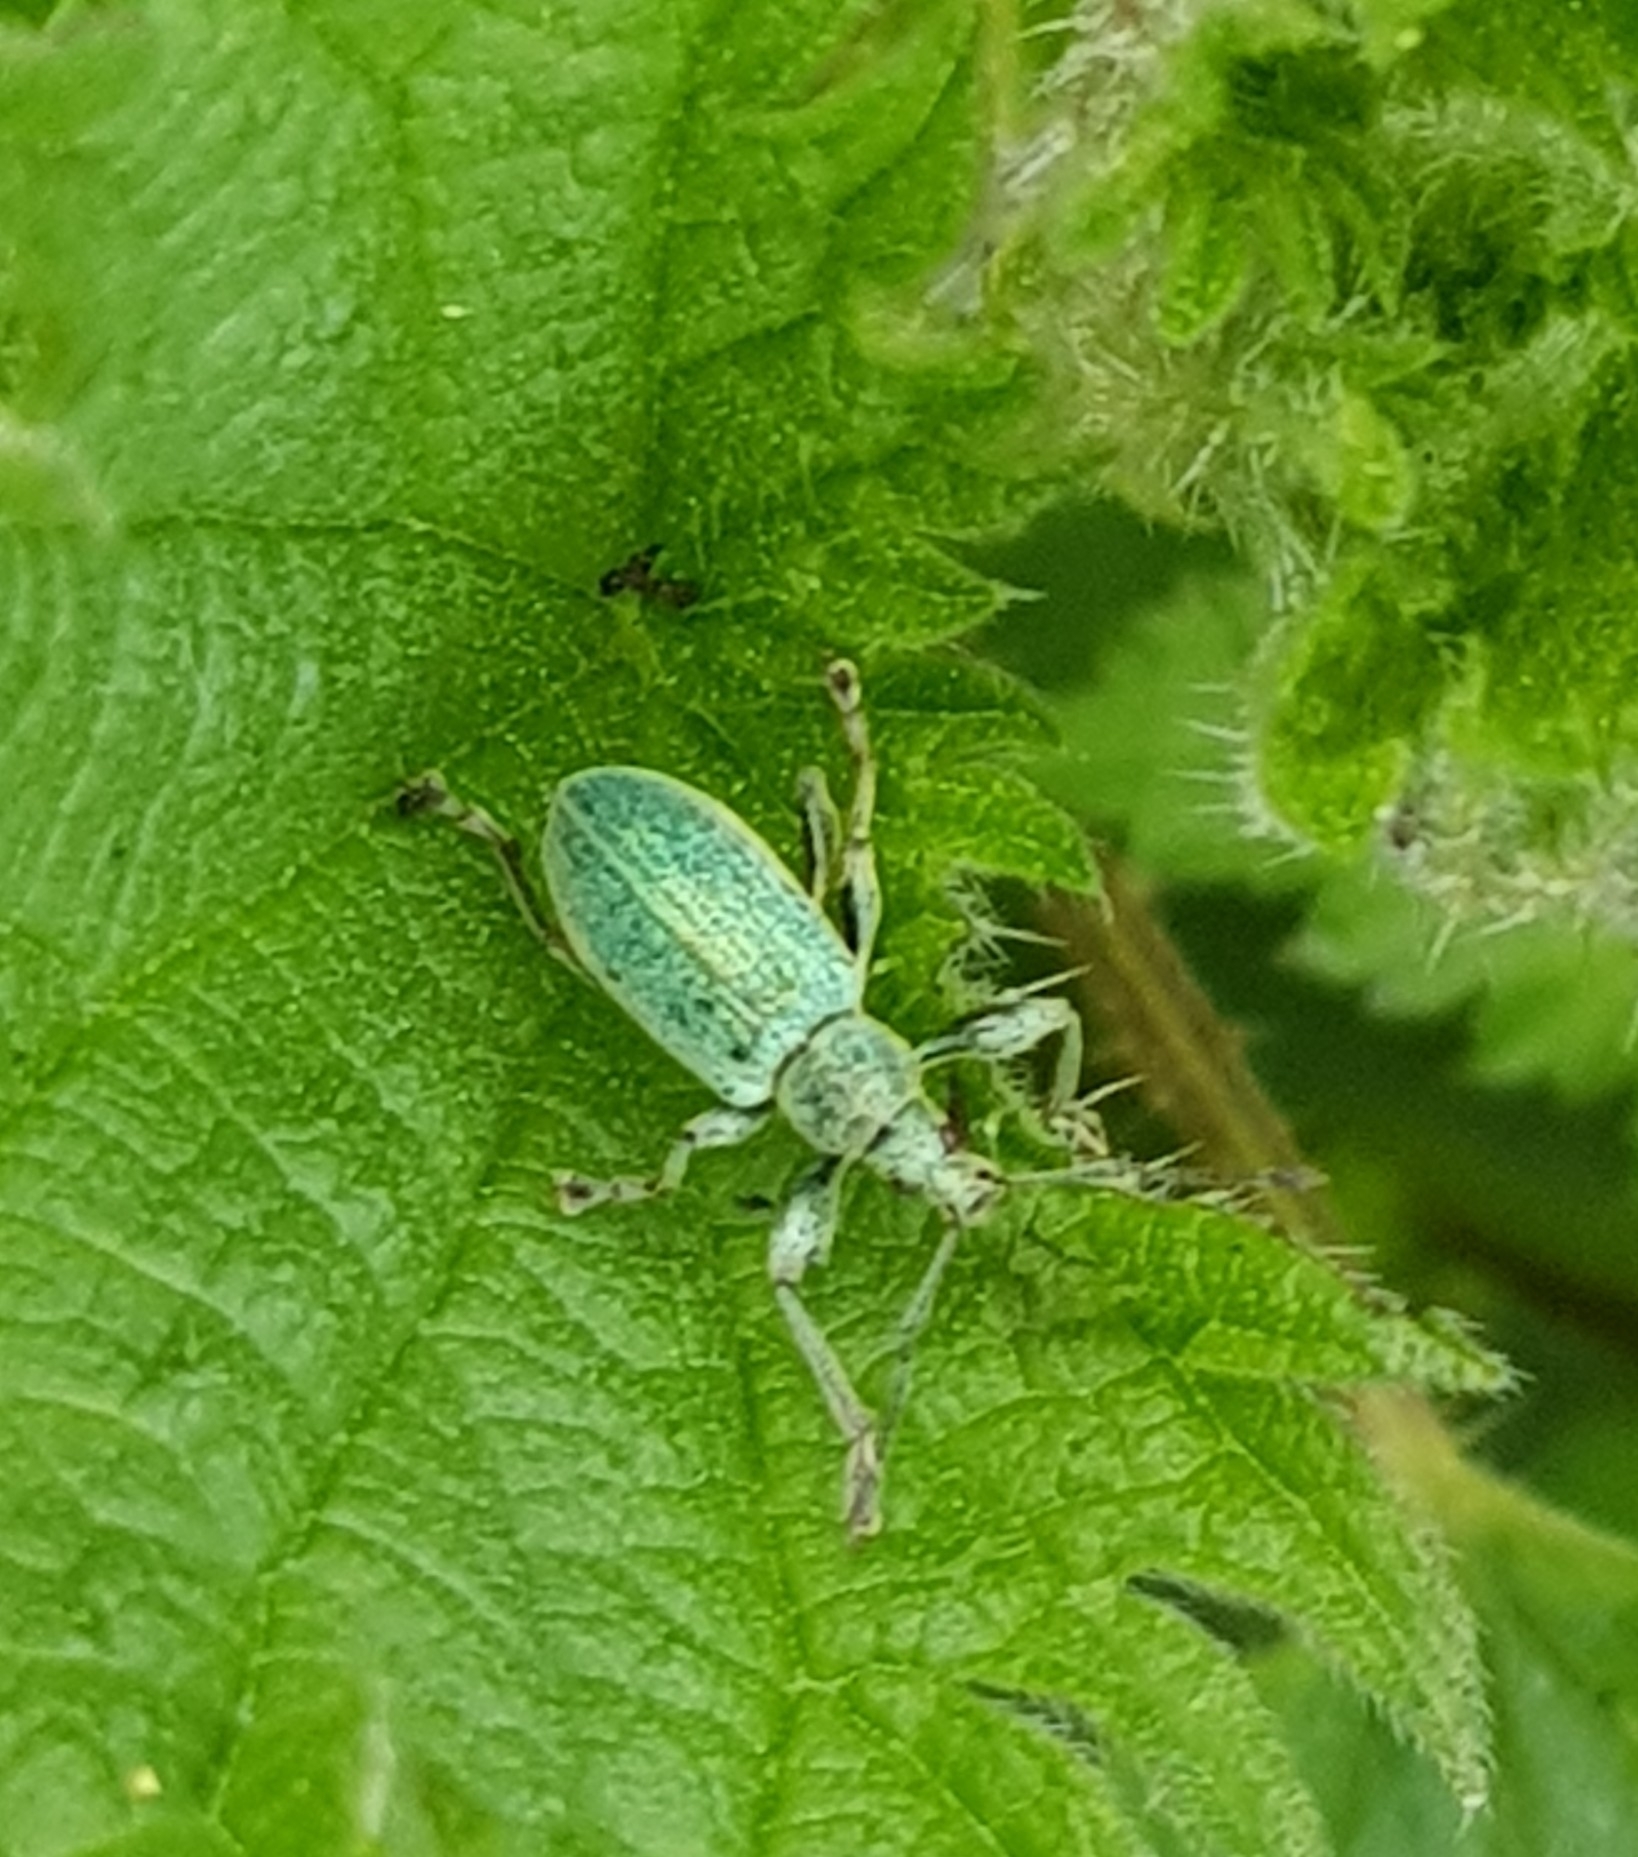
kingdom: Animalia
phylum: Arthropoda
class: Insecta
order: Coleoptera
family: Curculionidae
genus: Phyllobius
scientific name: Phyllobius pomaceus
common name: Green nettle weevil
